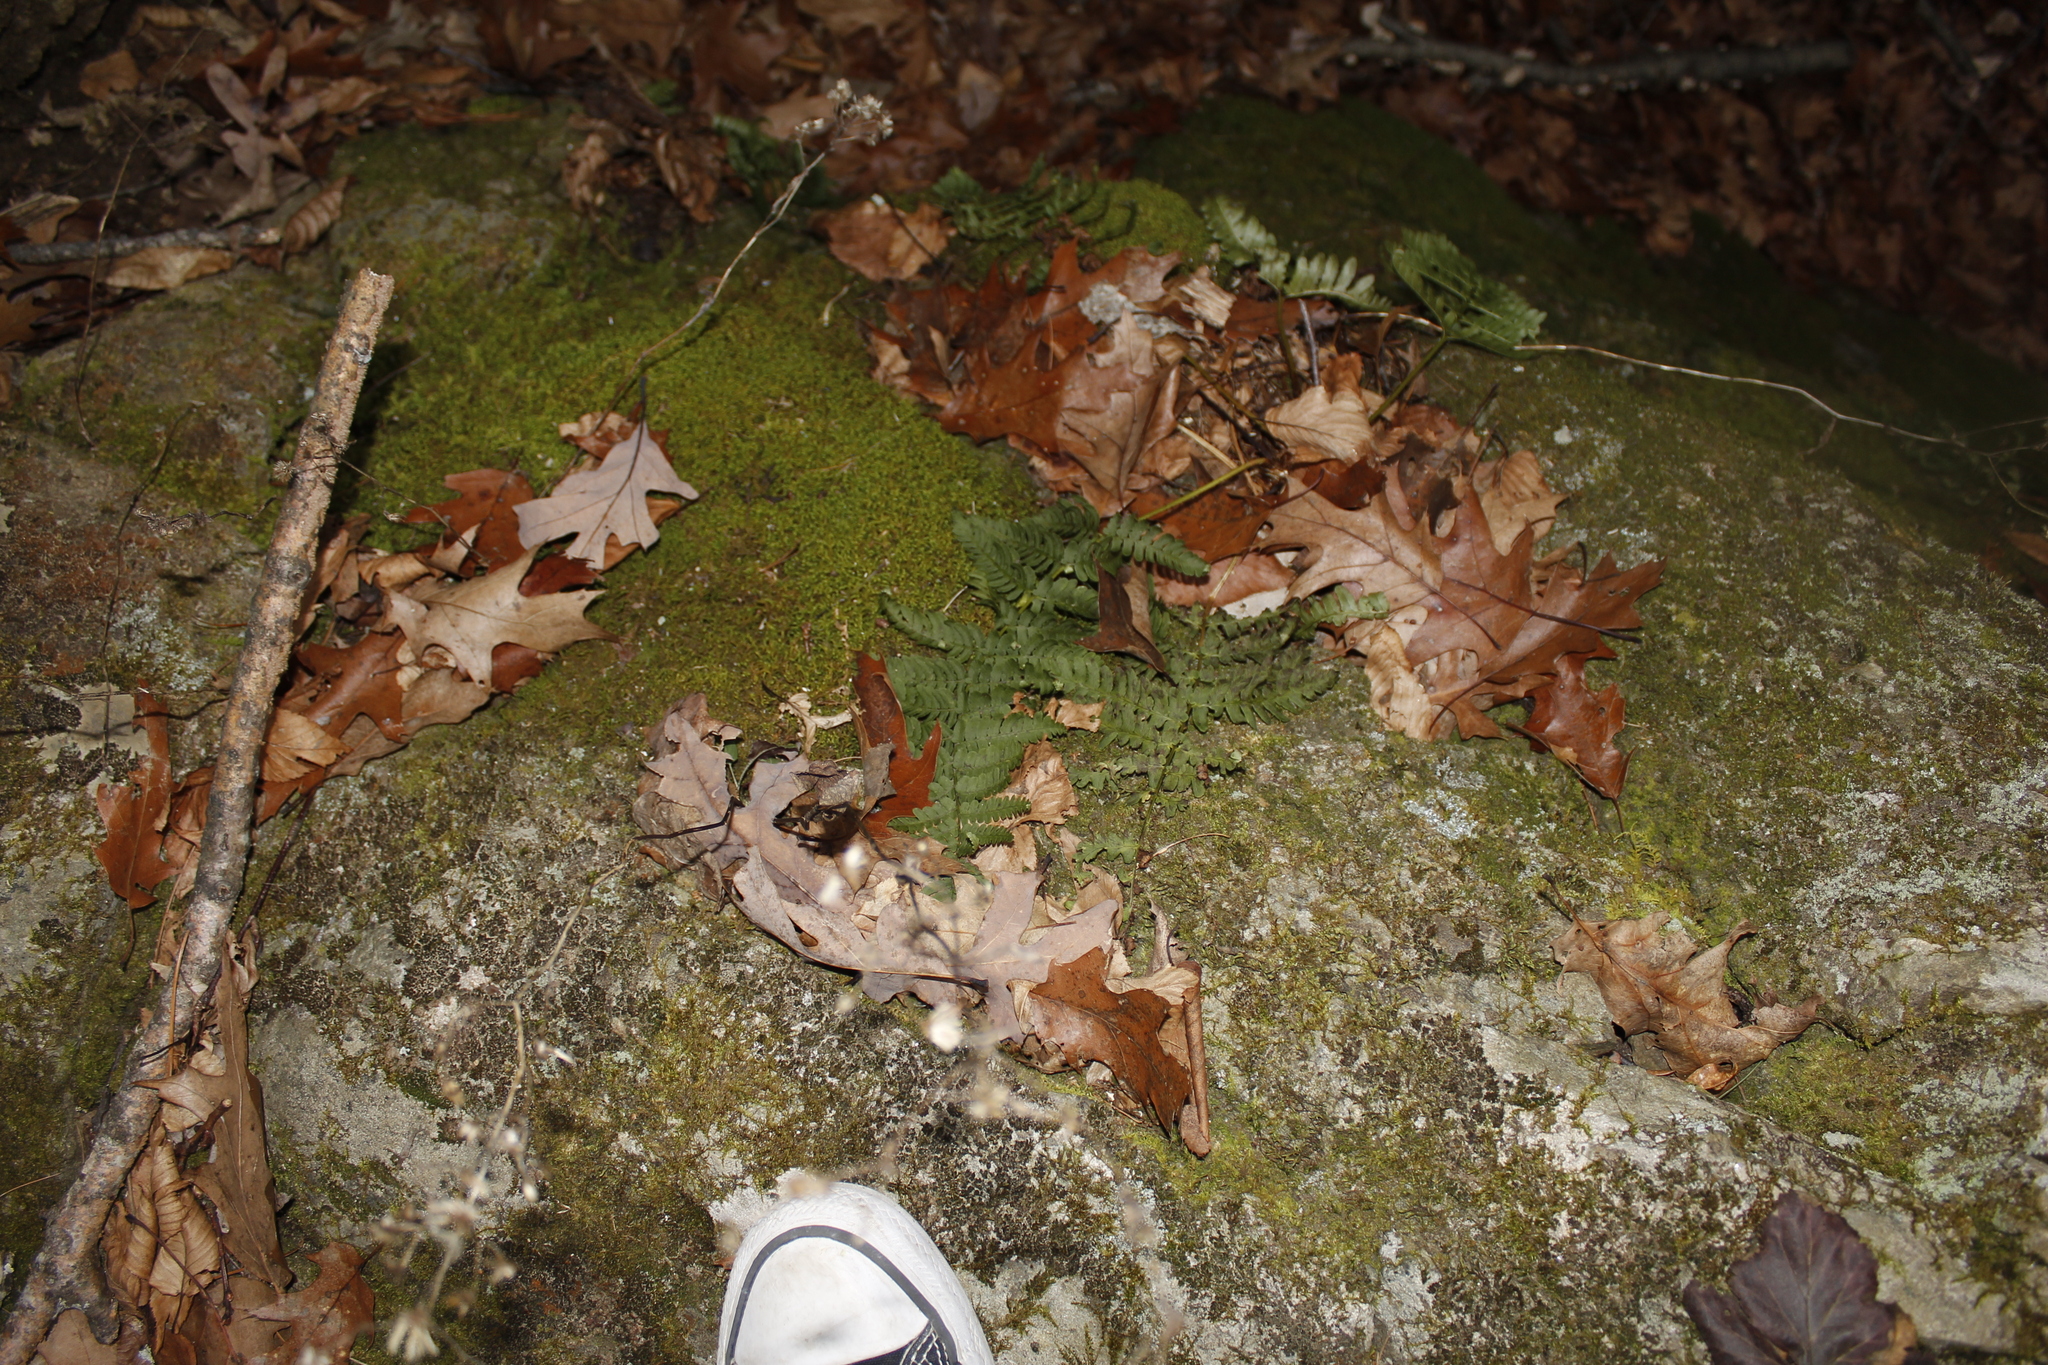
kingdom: Plantae
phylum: Tracheophyta
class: Polypodiopsida
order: Polypodiales
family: Dryopteridaceae
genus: Dryopteris
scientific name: Dryopteris marginalis
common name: Marginal wood fern
